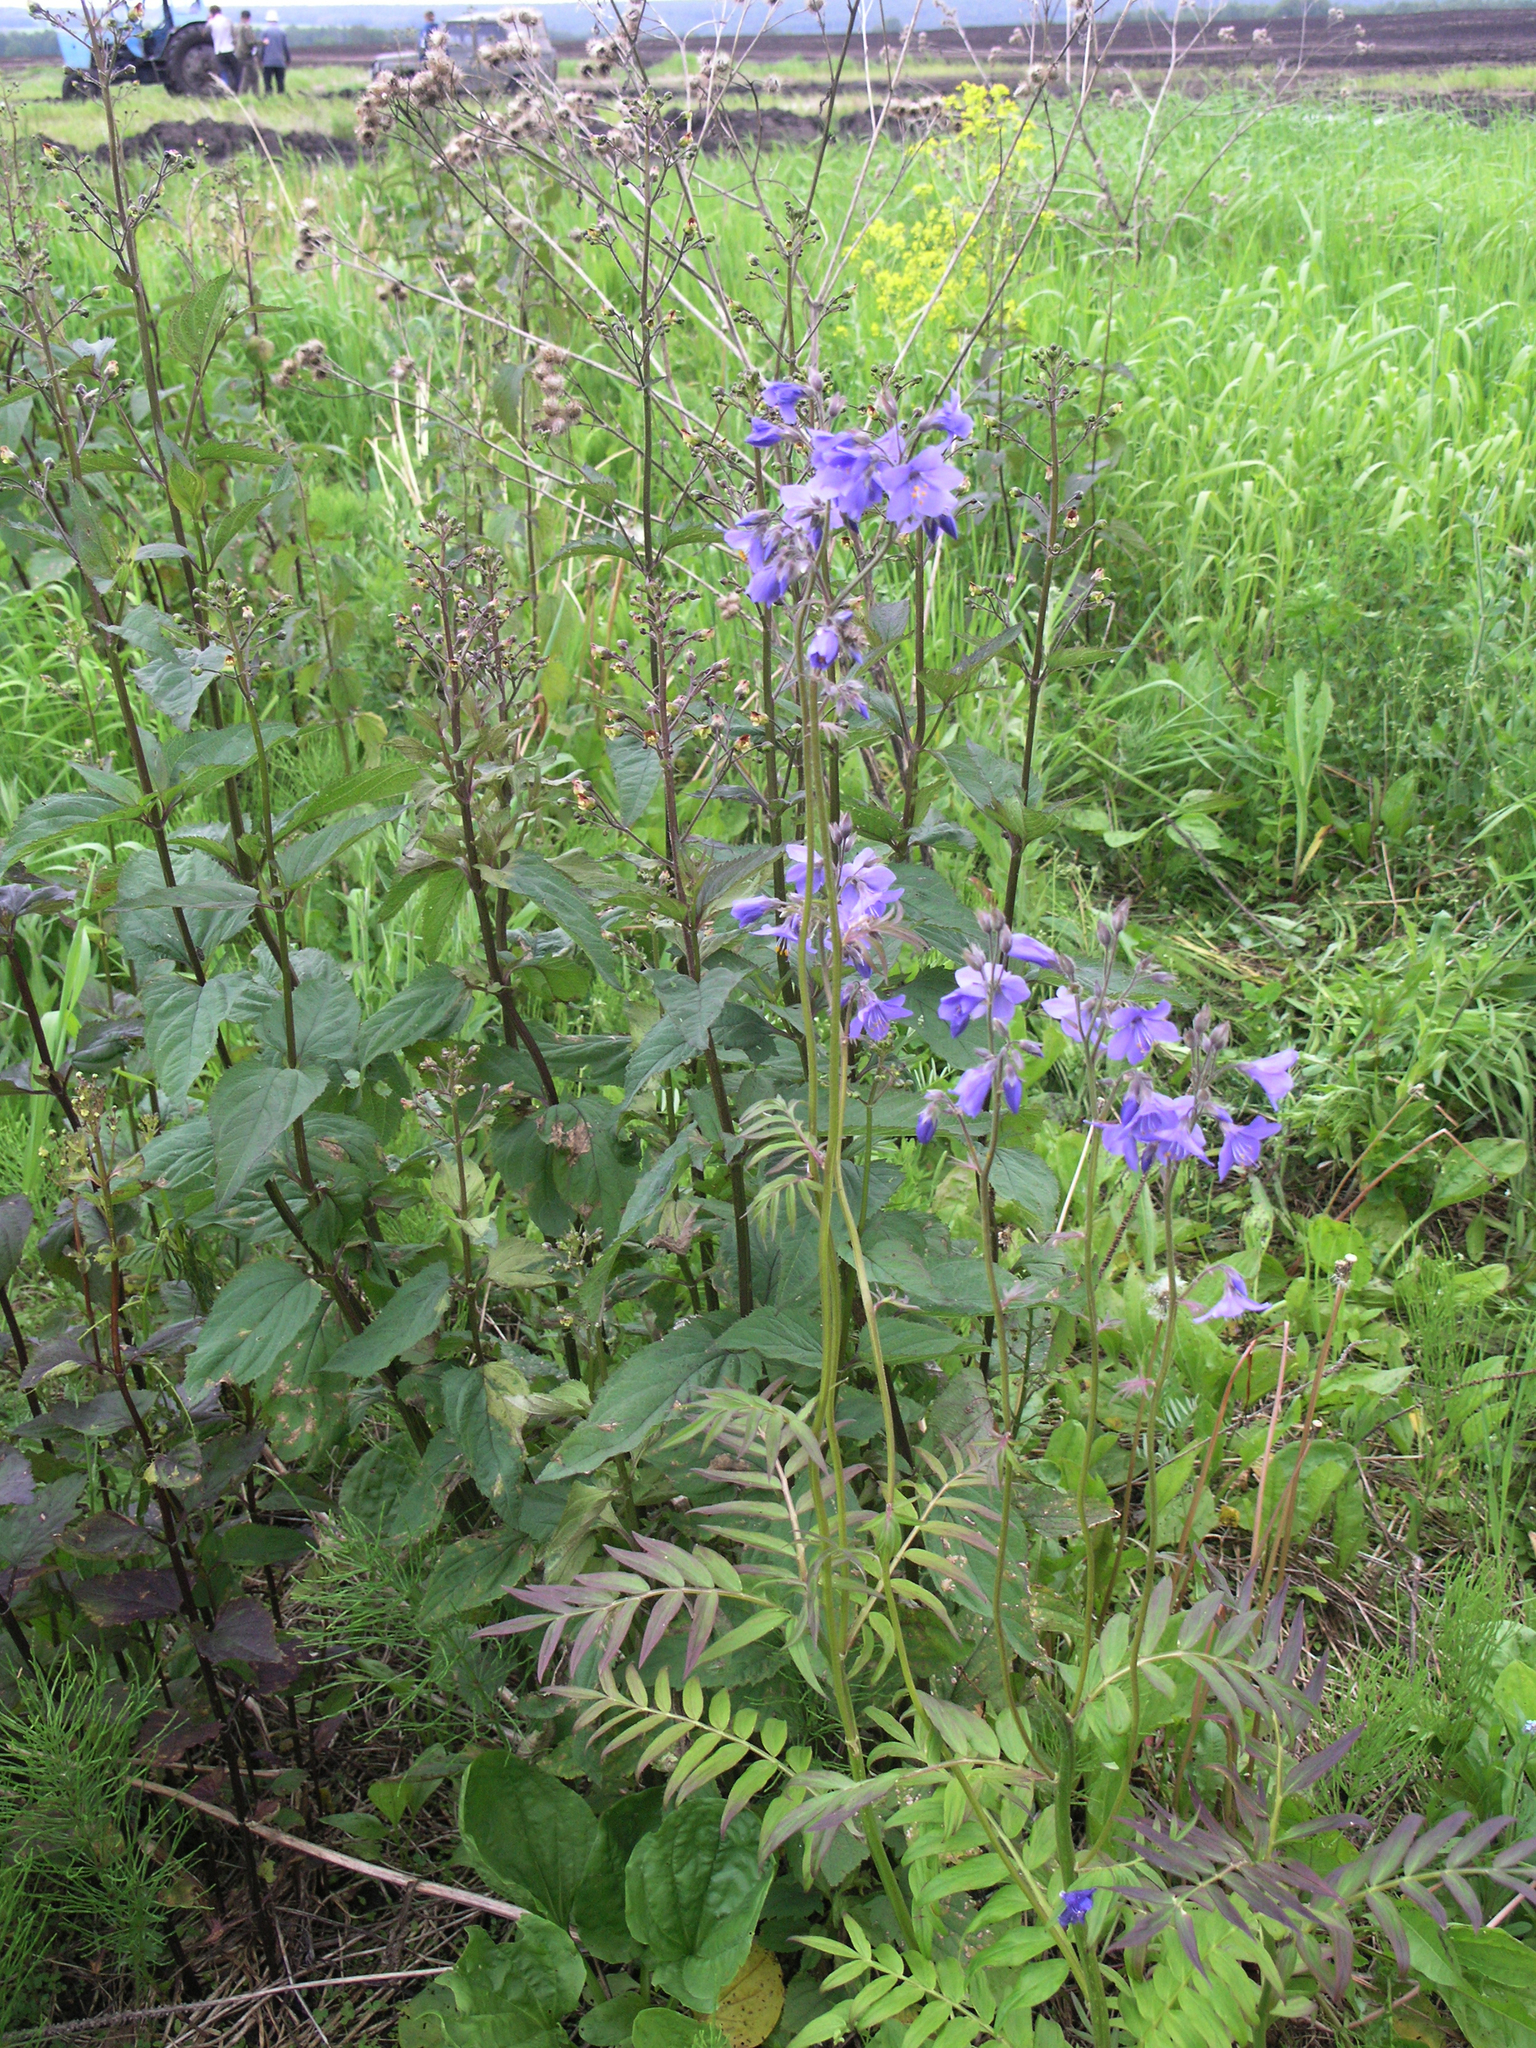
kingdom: Plantae
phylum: Tracheophyta
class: Magnoliopsida
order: Ericales
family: Polemoniaceae
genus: Polemonium
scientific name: Polemonium caeruleum
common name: Jacob's-ladder
